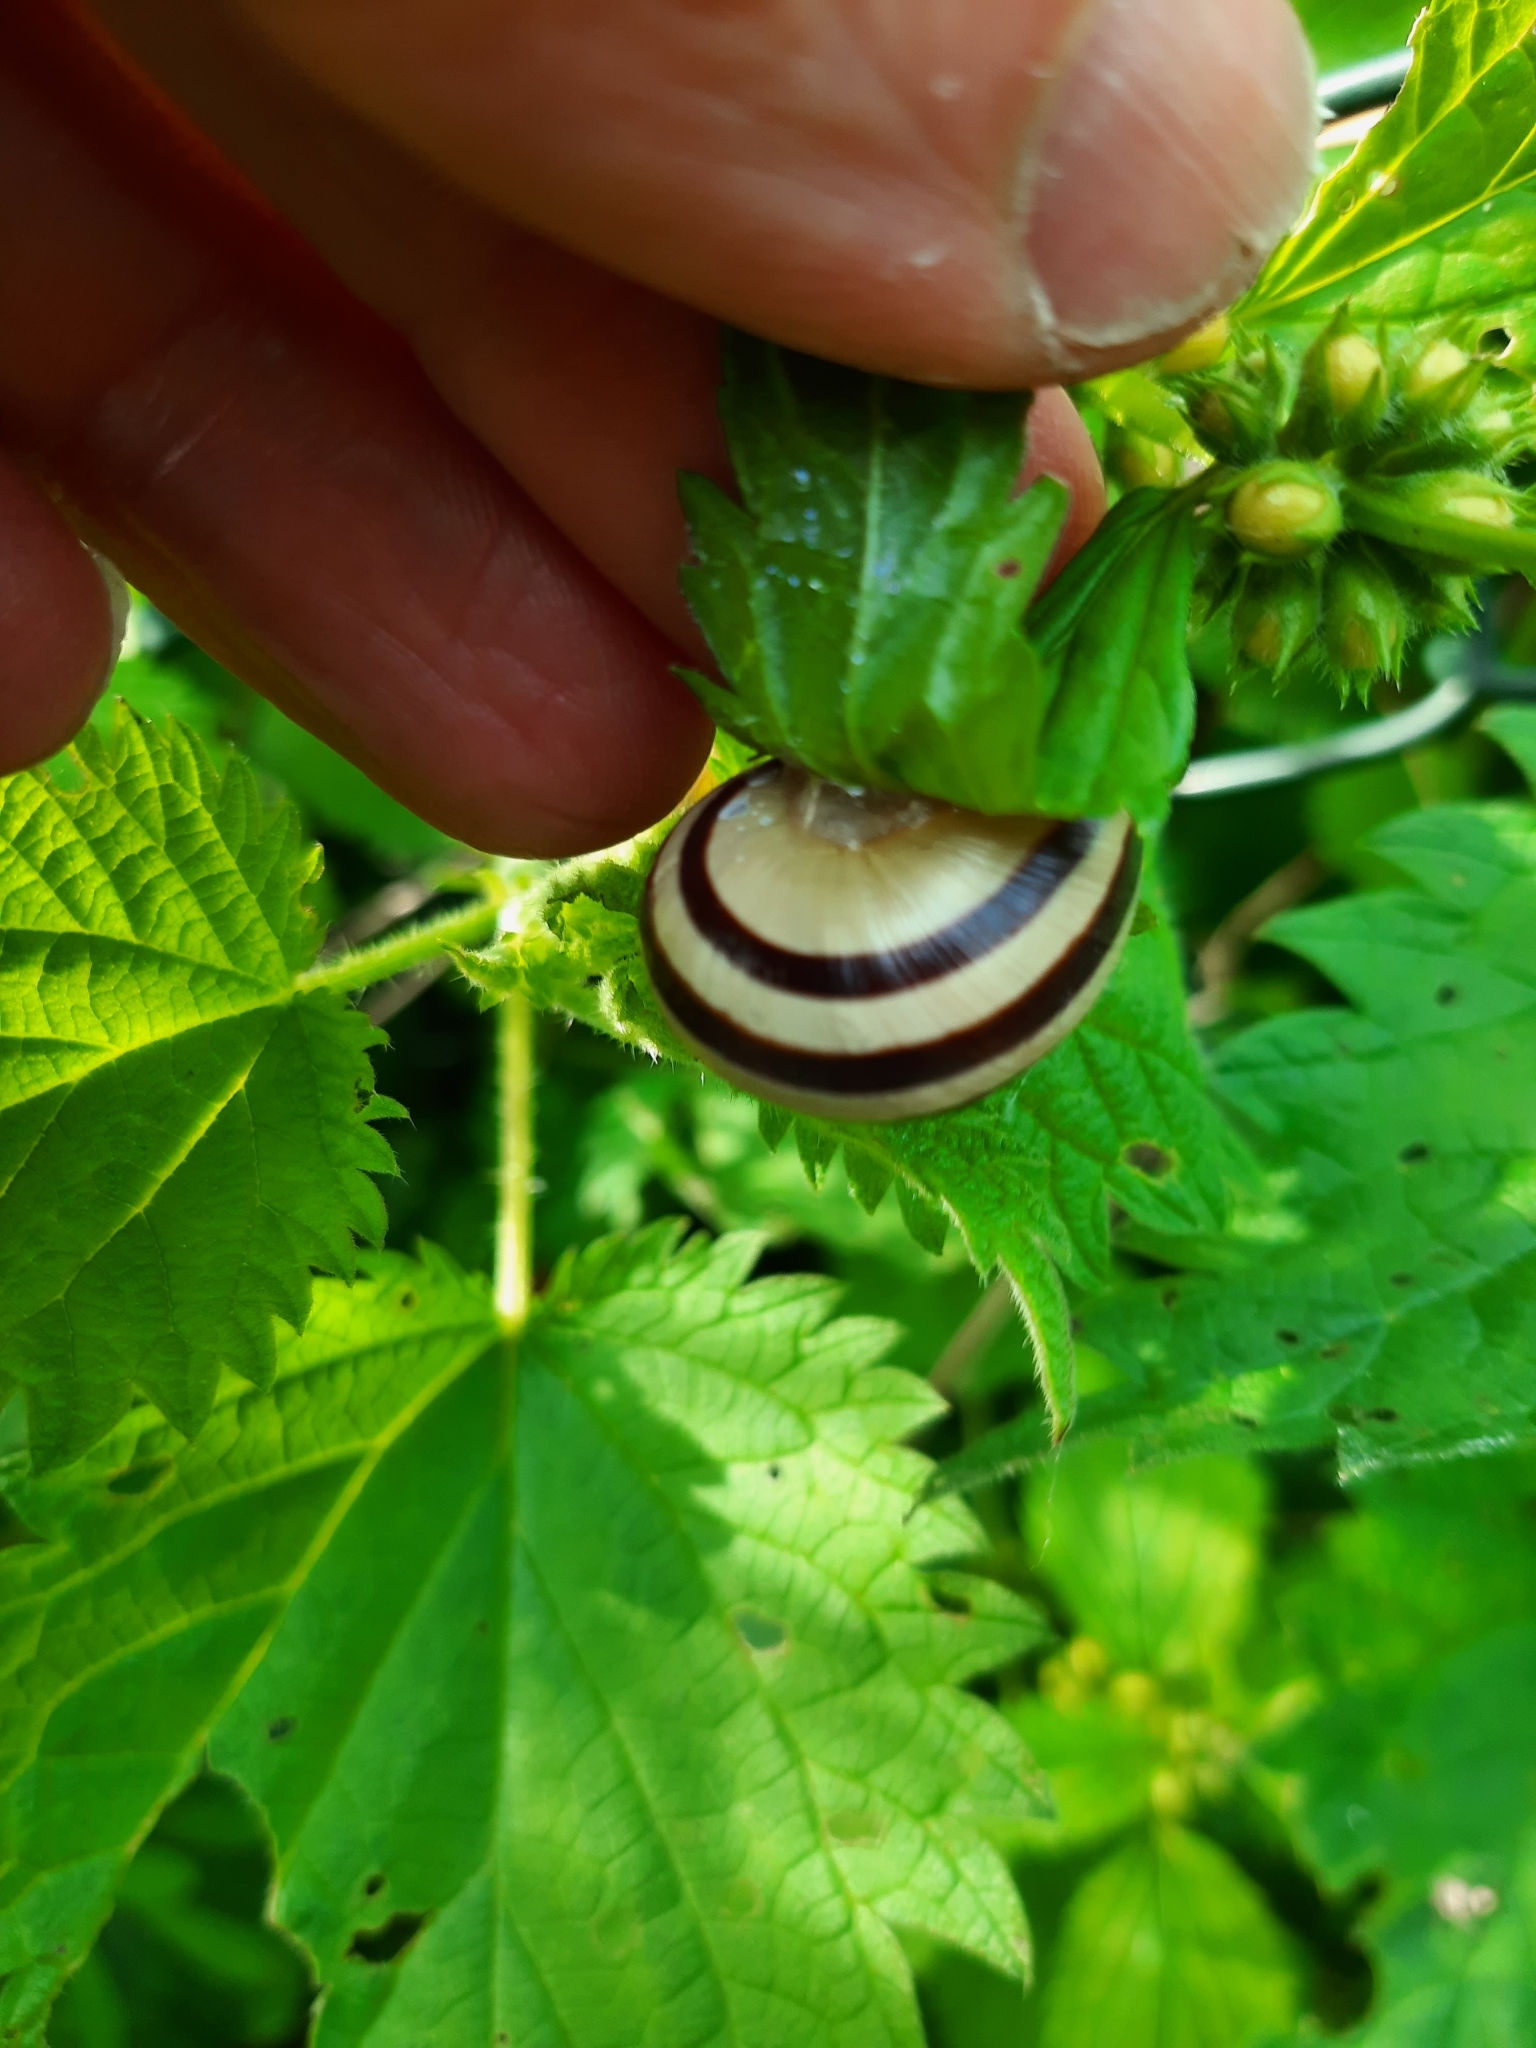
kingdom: Animalia
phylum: Mollusca
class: Gastropoda
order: Stylommatophora
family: Helicidae
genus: Cepaea
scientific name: Cepaea hortensis
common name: White-lip gardensnail
